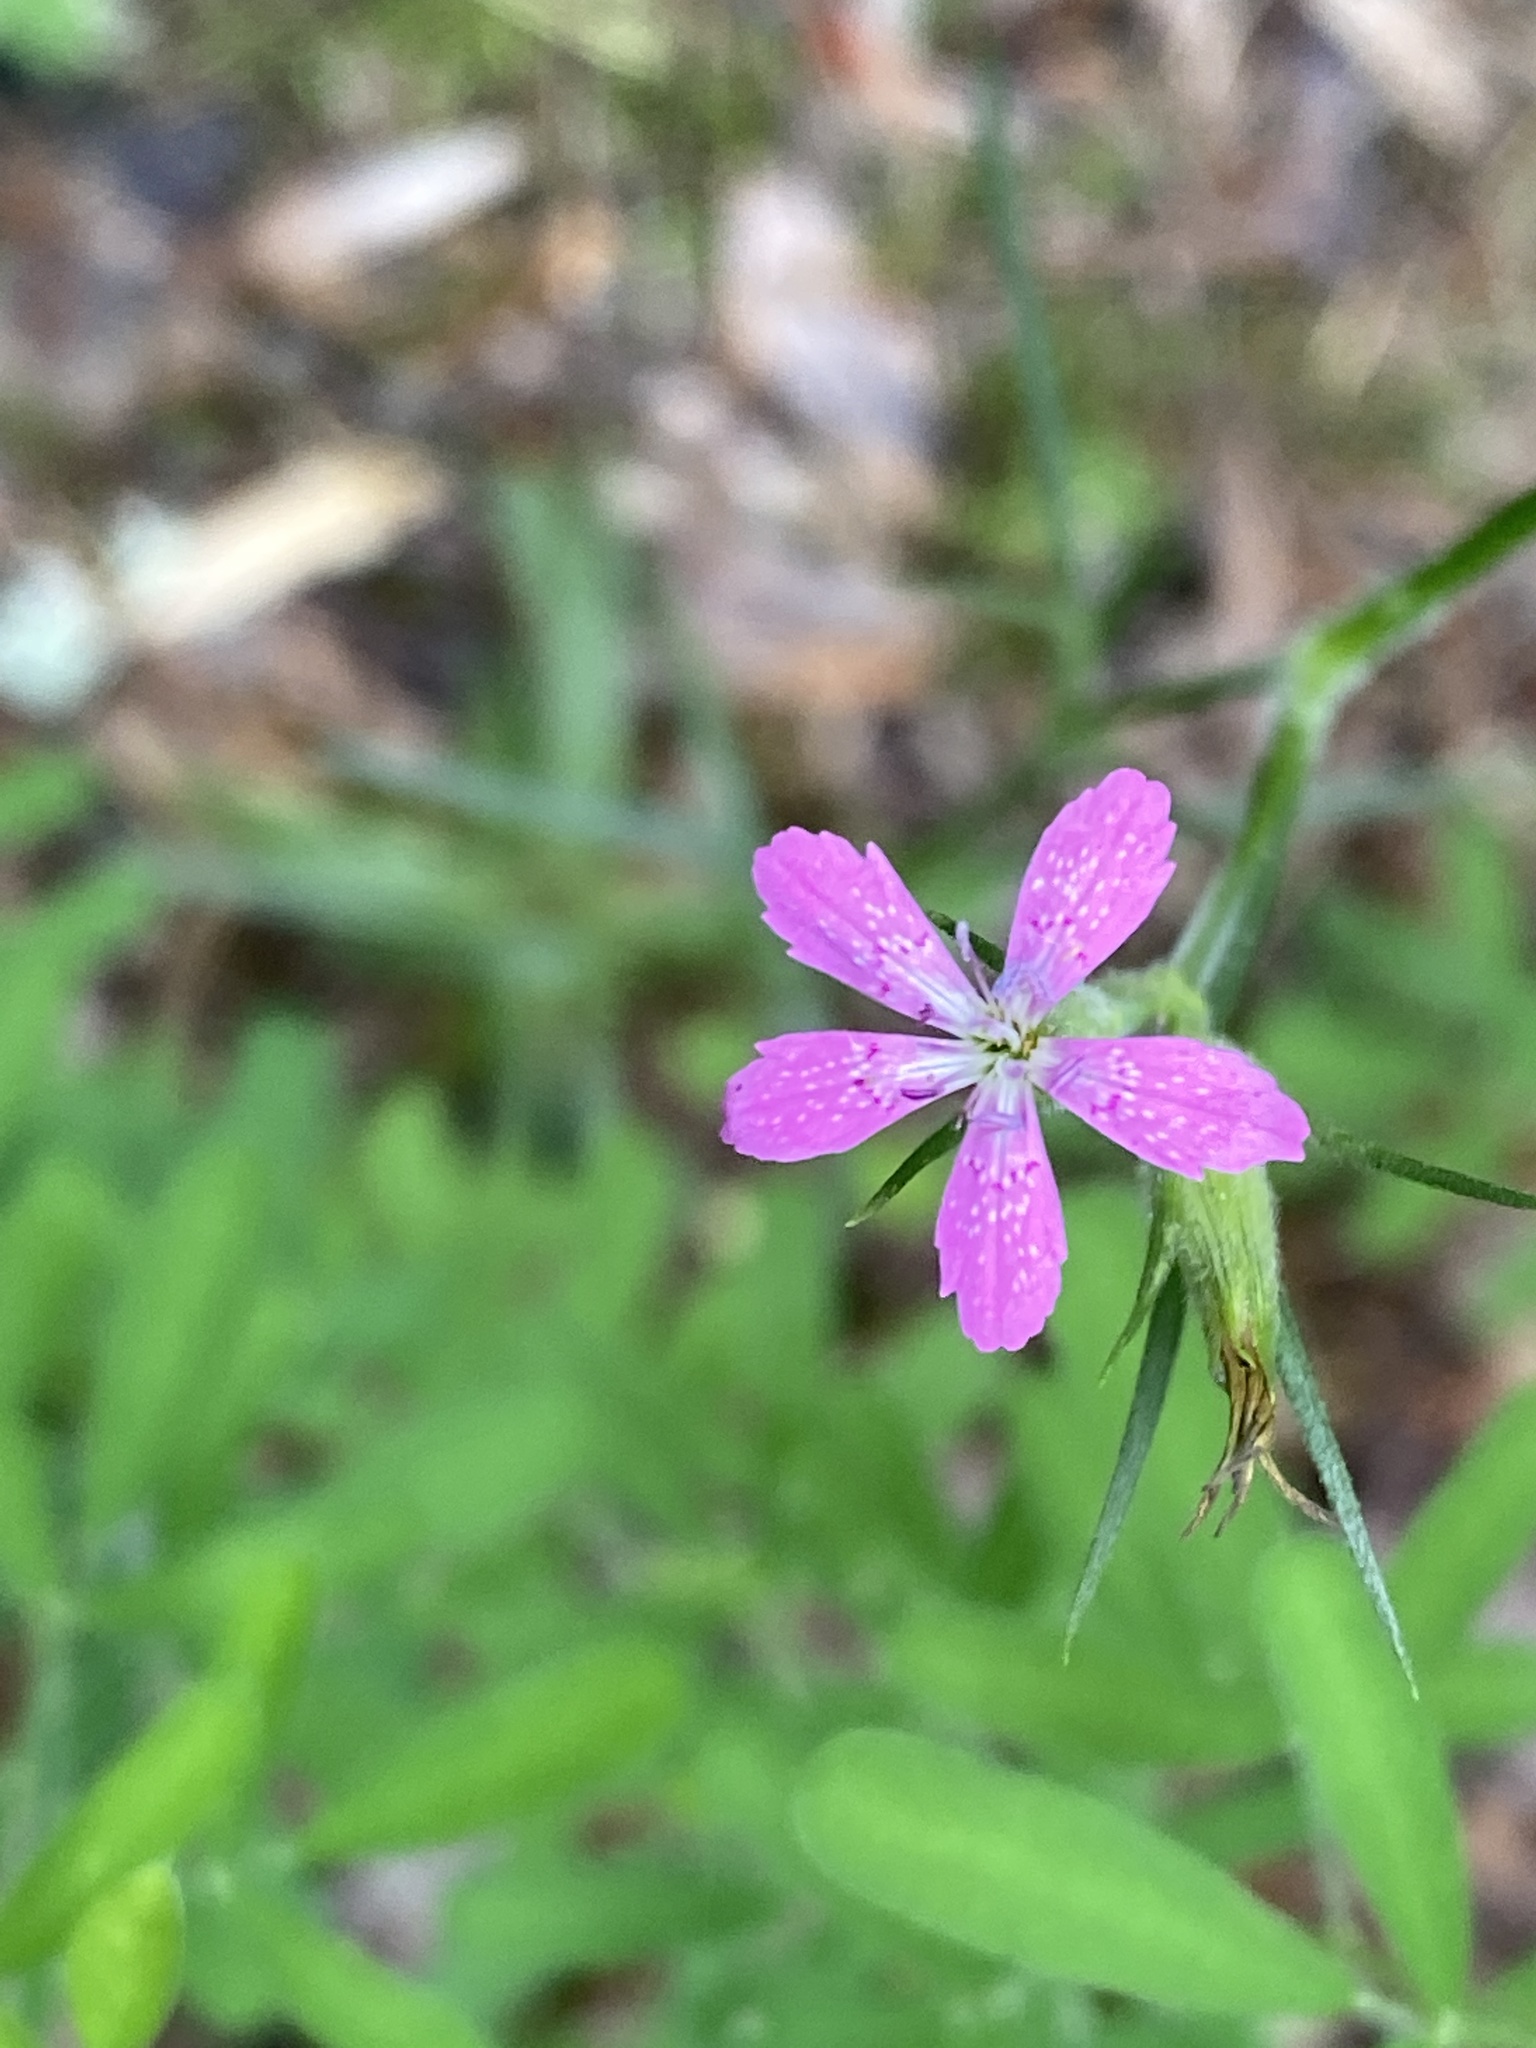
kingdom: Plantae
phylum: Tracheophyta
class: Magnoliopsida
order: Caryophyllales
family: Caryophyllaceae
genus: Dianthus
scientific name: Dianthus armeria
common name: Deptford pink
